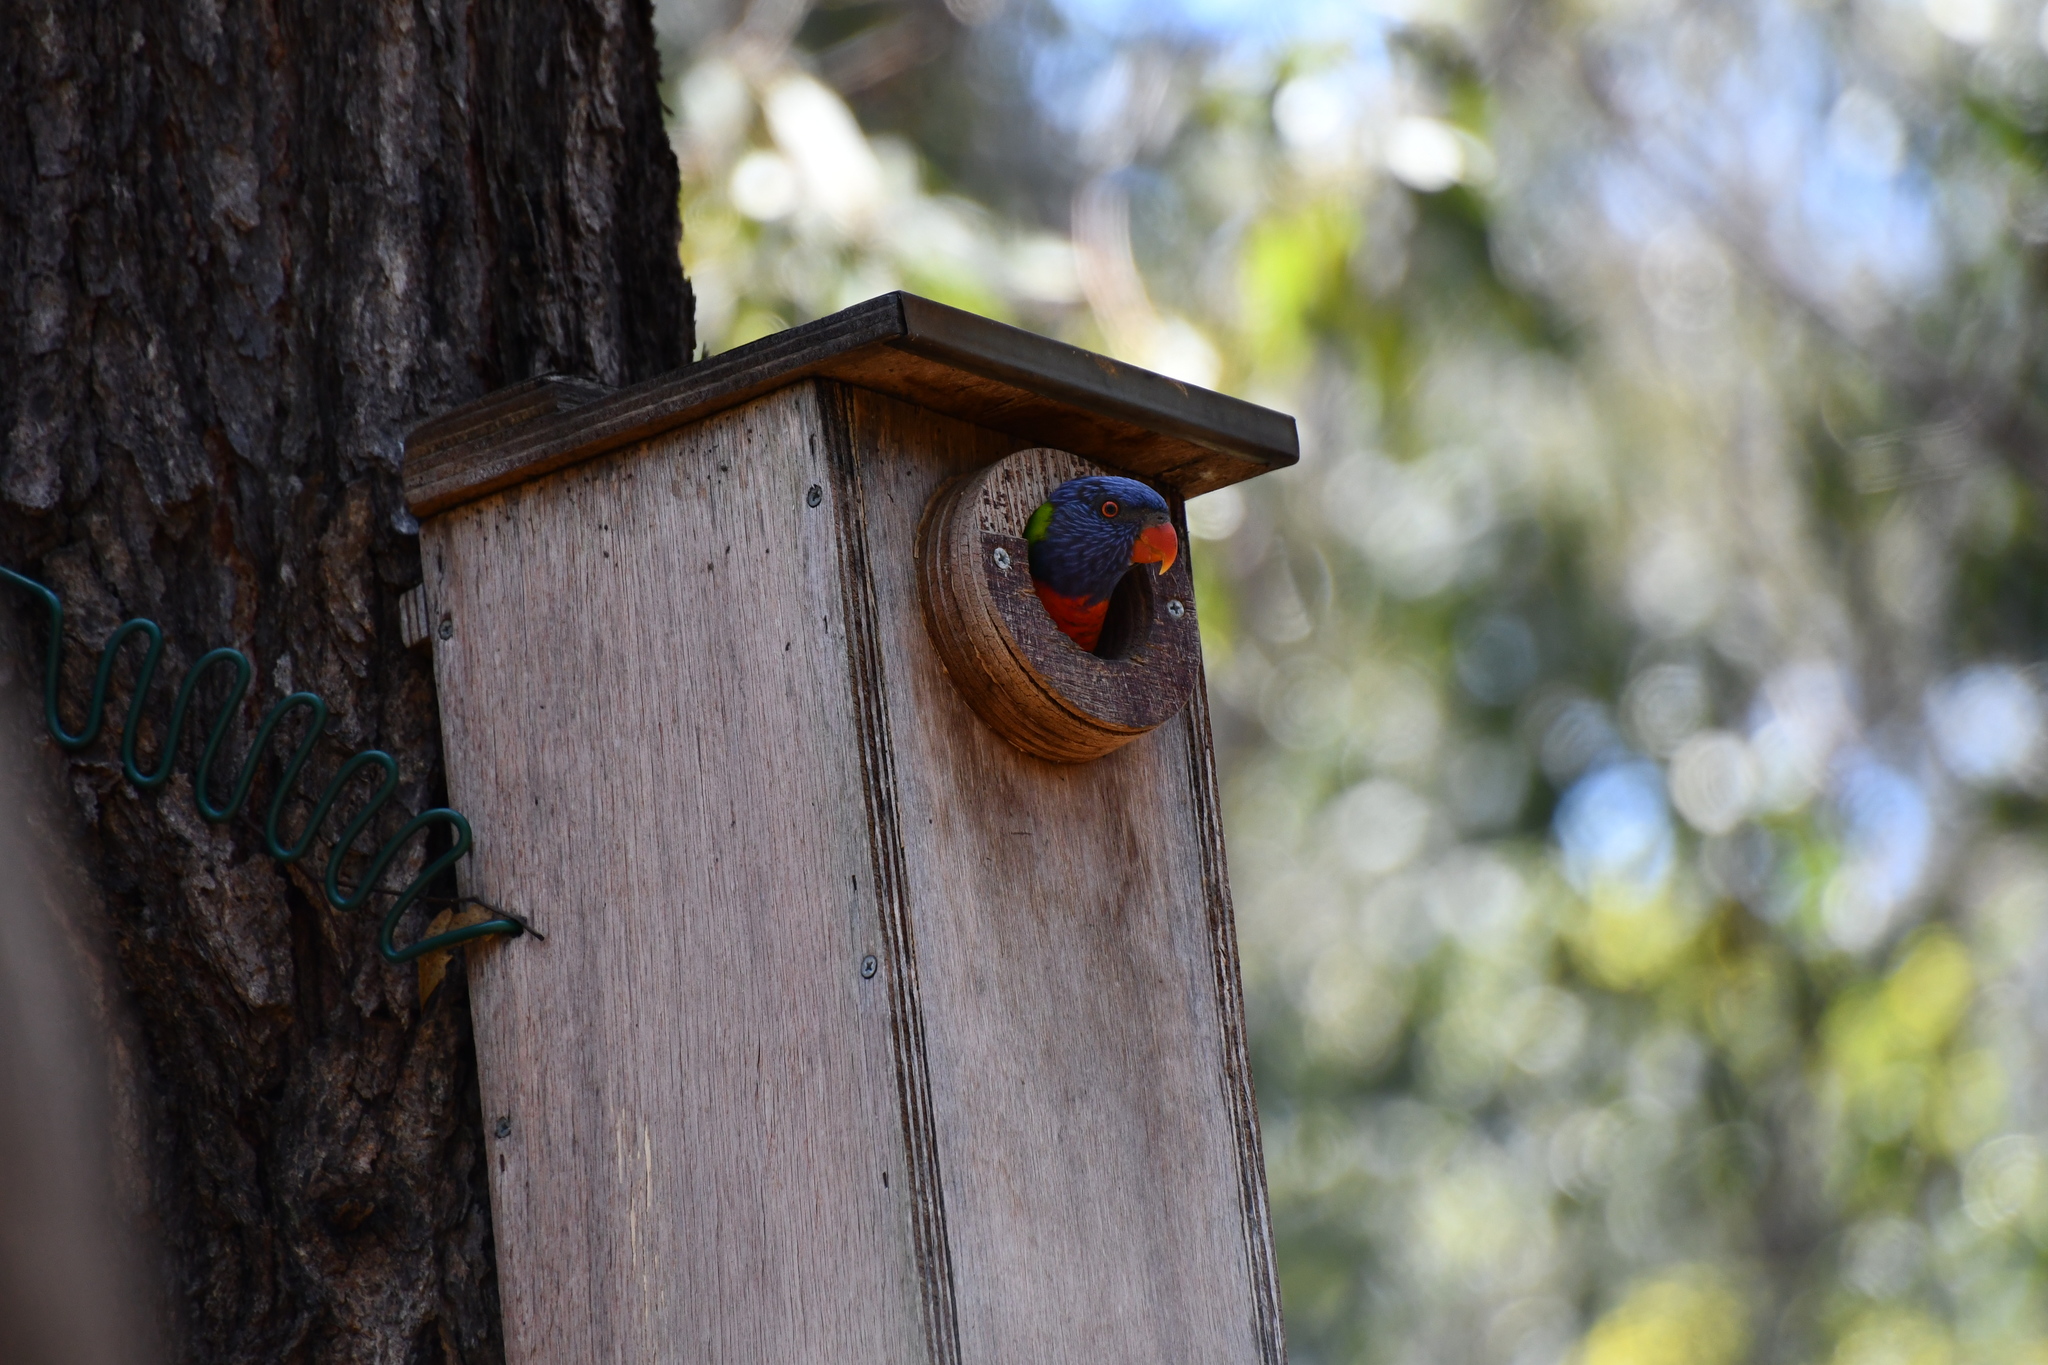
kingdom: Animalia
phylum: Chordata
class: Aves
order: Psittaciformes
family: Psittacidae
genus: Trichoglossus
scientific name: Trichoglossus haematodus
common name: Coconut lorikeet
